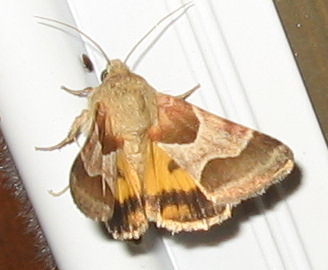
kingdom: Animalia
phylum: Arthropoda
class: Insecta
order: Lepidoptera
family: Noctuidae
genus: Schinia
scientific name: Schinia jaguarina
